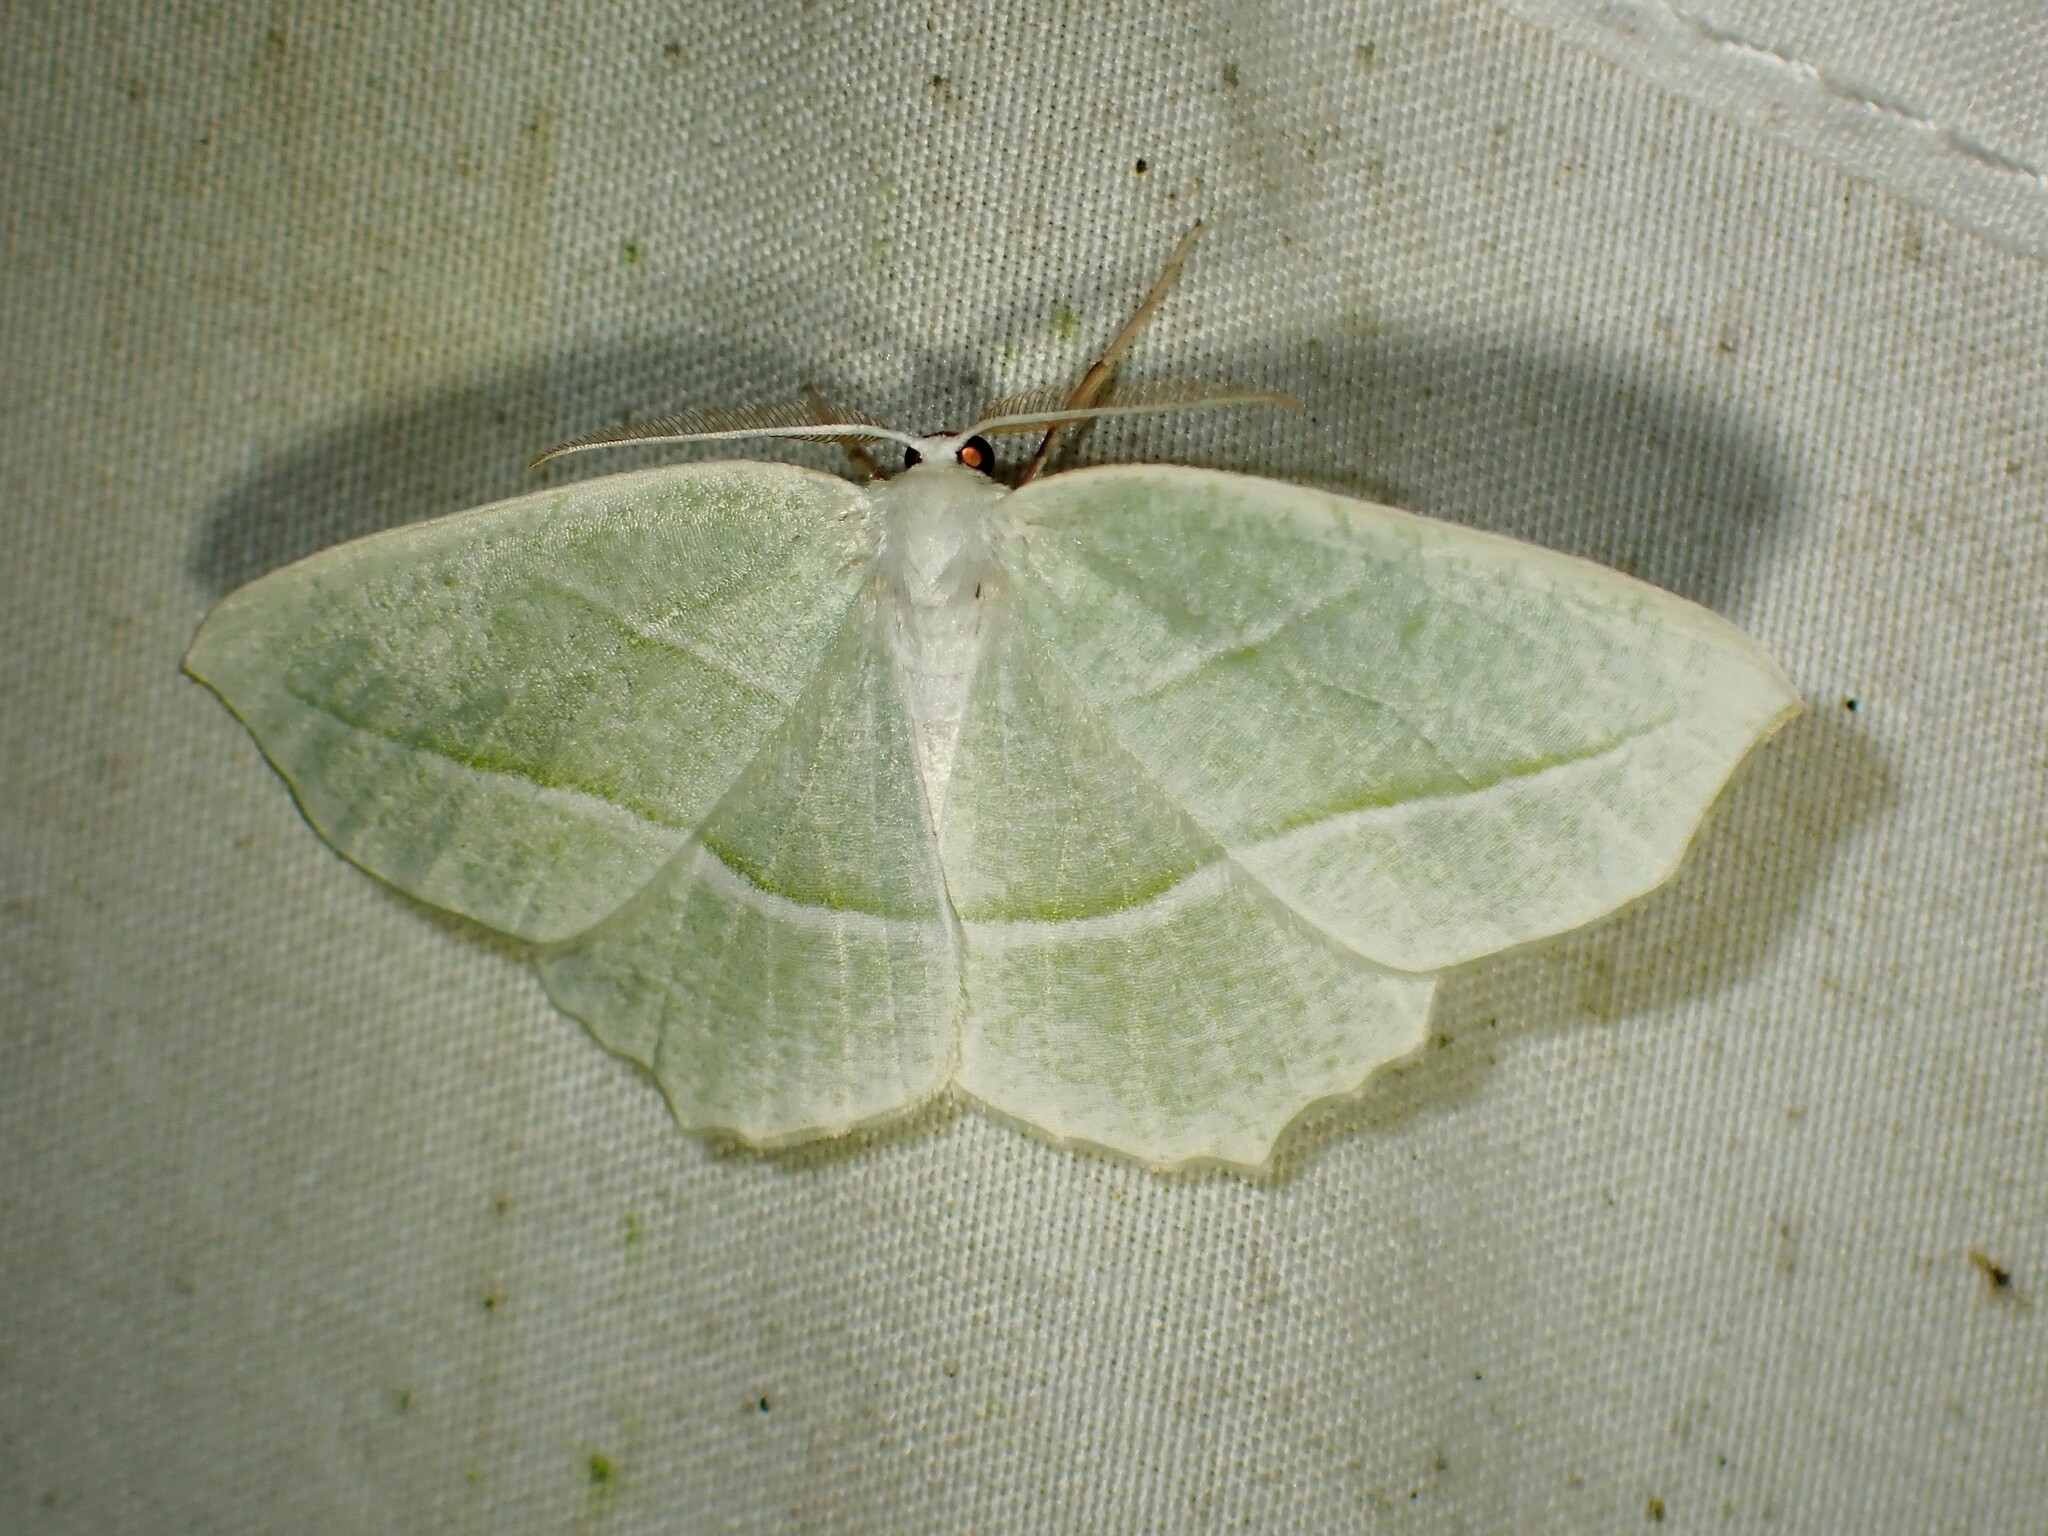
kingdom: Animalia
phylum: Arthropoda
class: Insecta
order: Lepidoptera
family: Geometridae
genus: Campaea
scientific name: Campaea perlata
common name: Fringed looper
